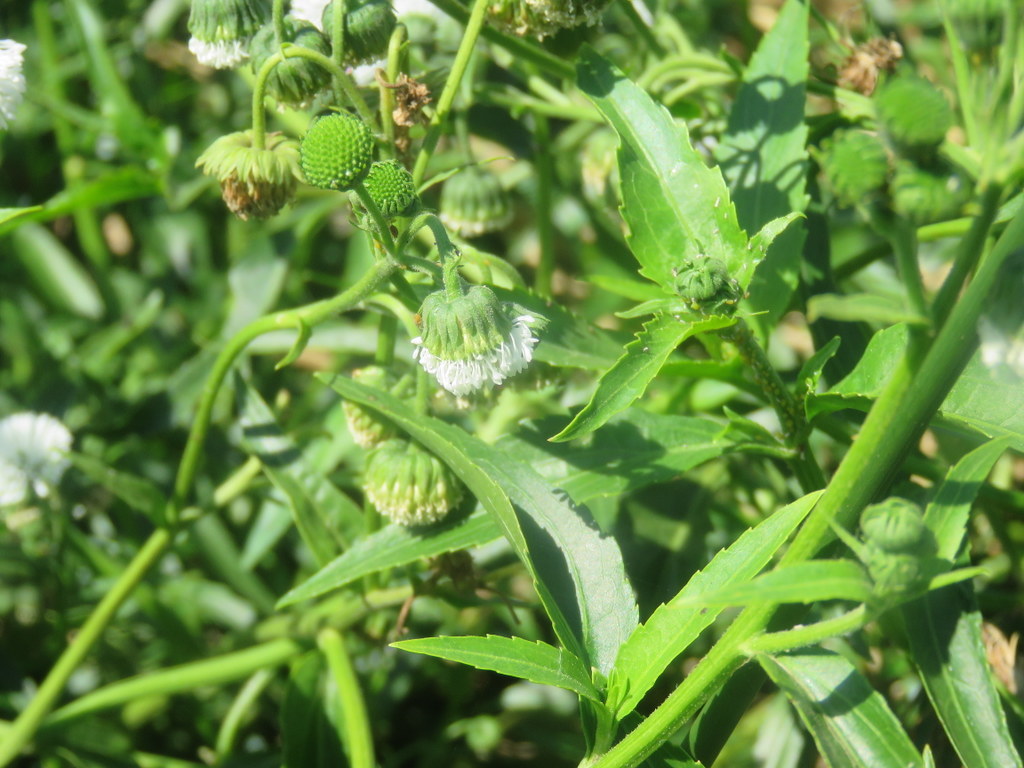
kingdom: Plantae
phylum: Tracheophyta
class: Magnoliopsida
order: Asterales
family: Asteraceae
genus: Gymnocoronis
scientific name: Gymnocoronis spilanthoides
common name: Senegal teaplant
